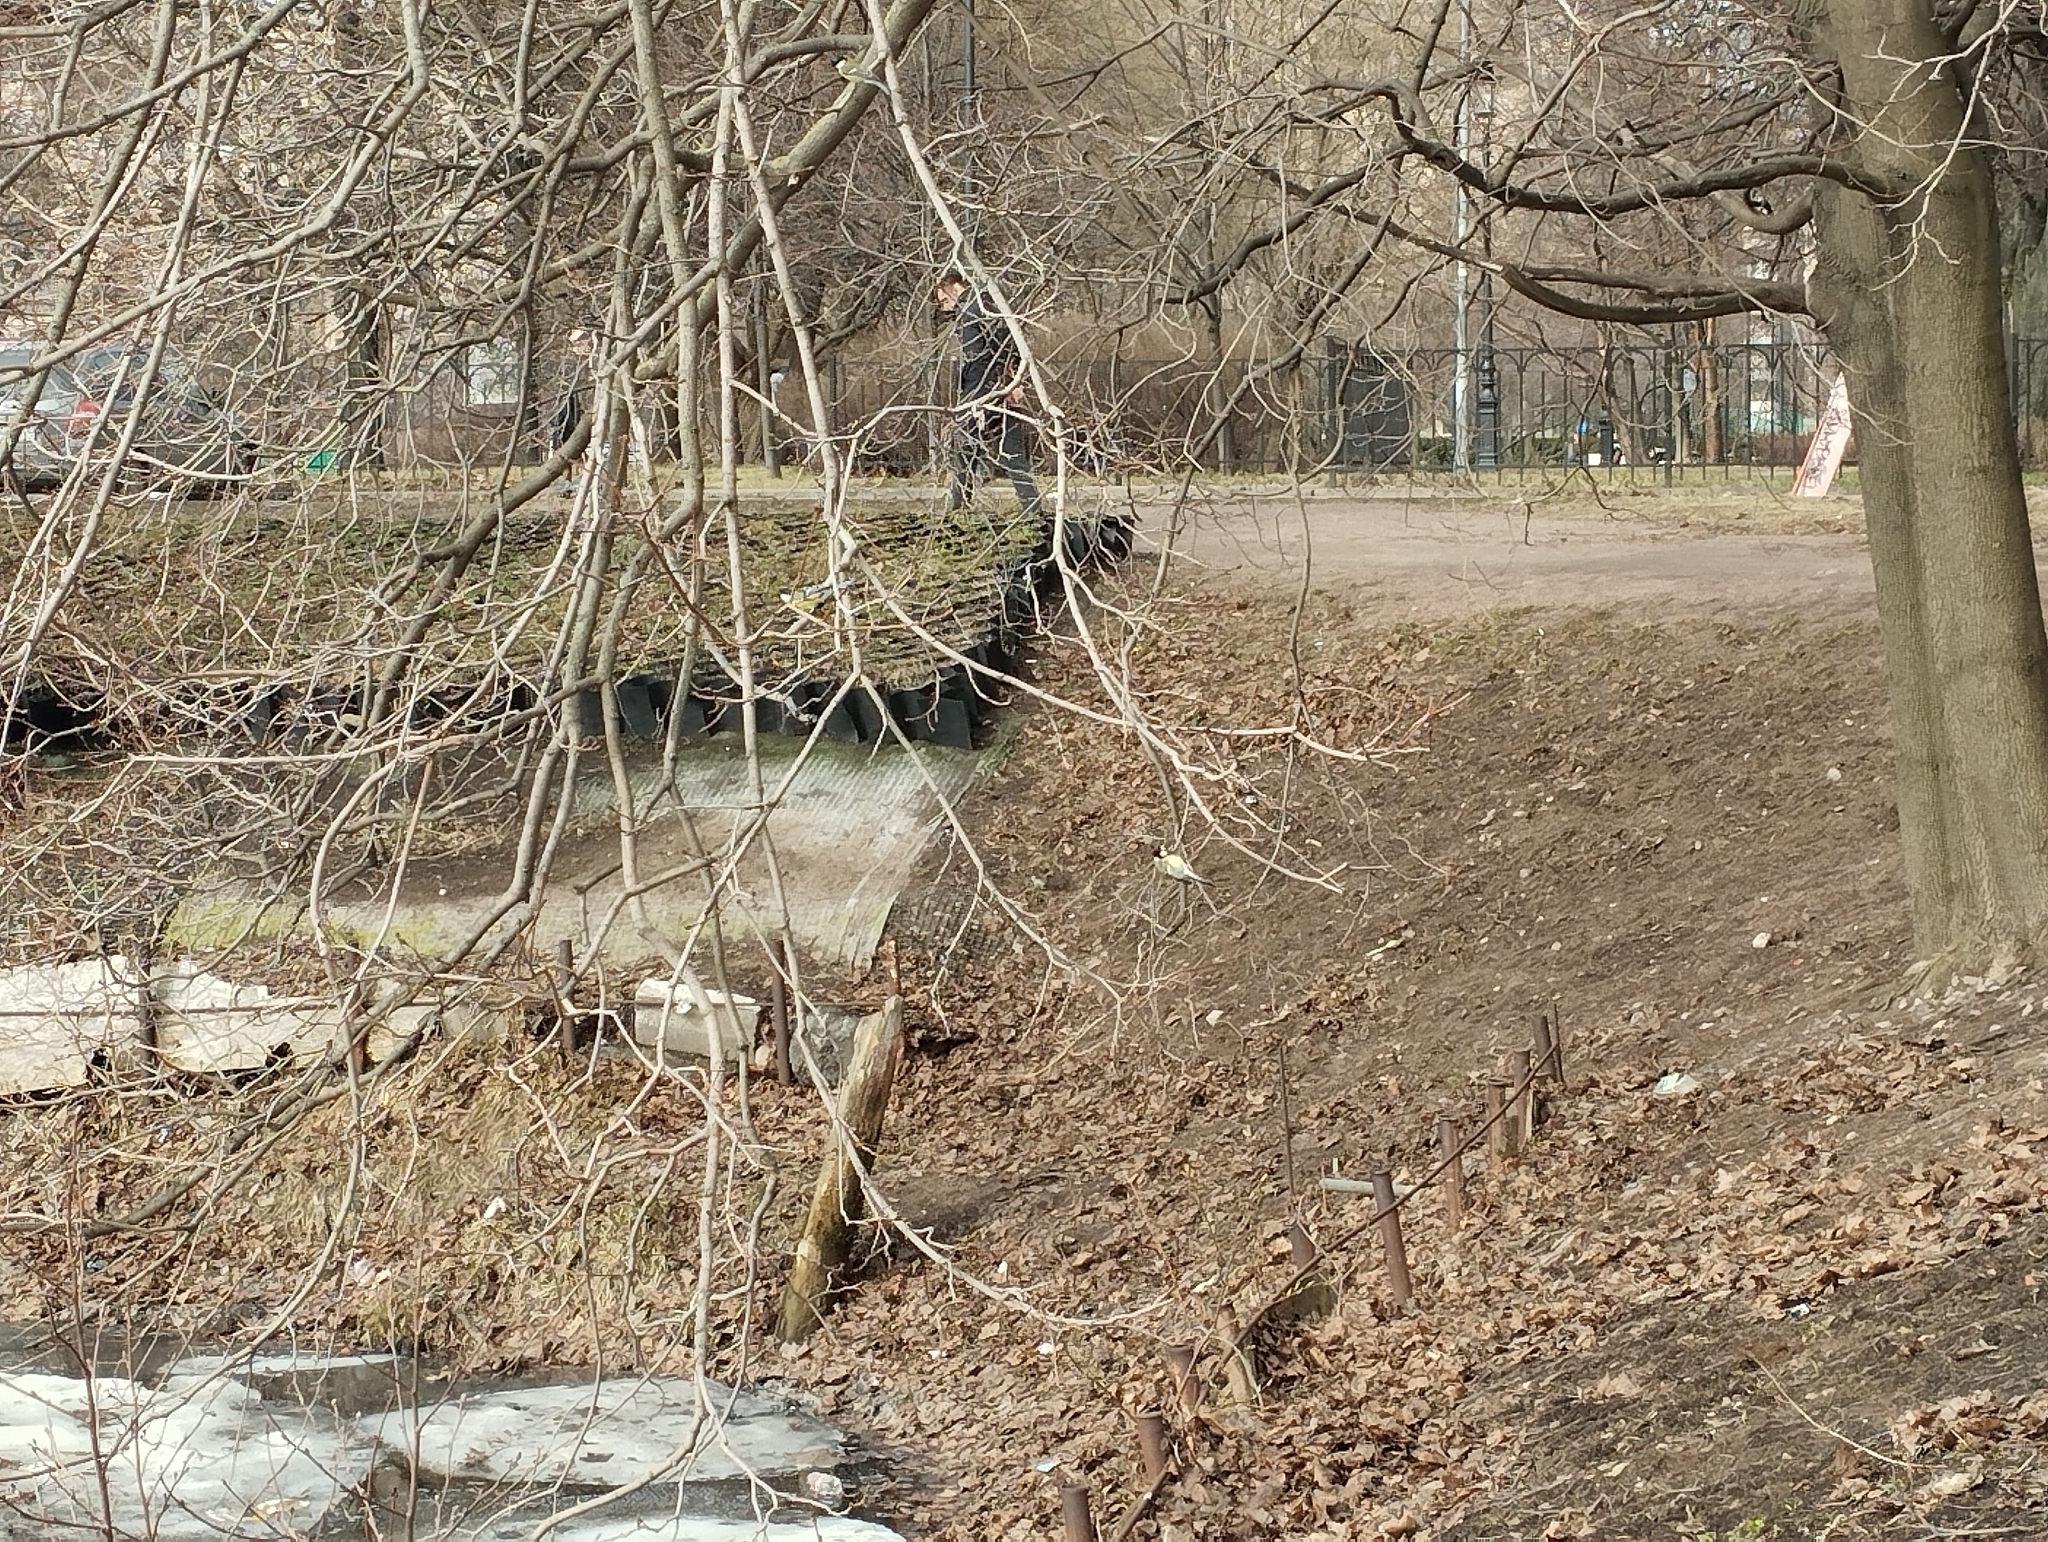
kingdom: Animalia
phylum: Chordata
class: Aves
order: Passeriformes
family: Paridae
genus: Parus
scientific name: Parus major
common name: Great tit
